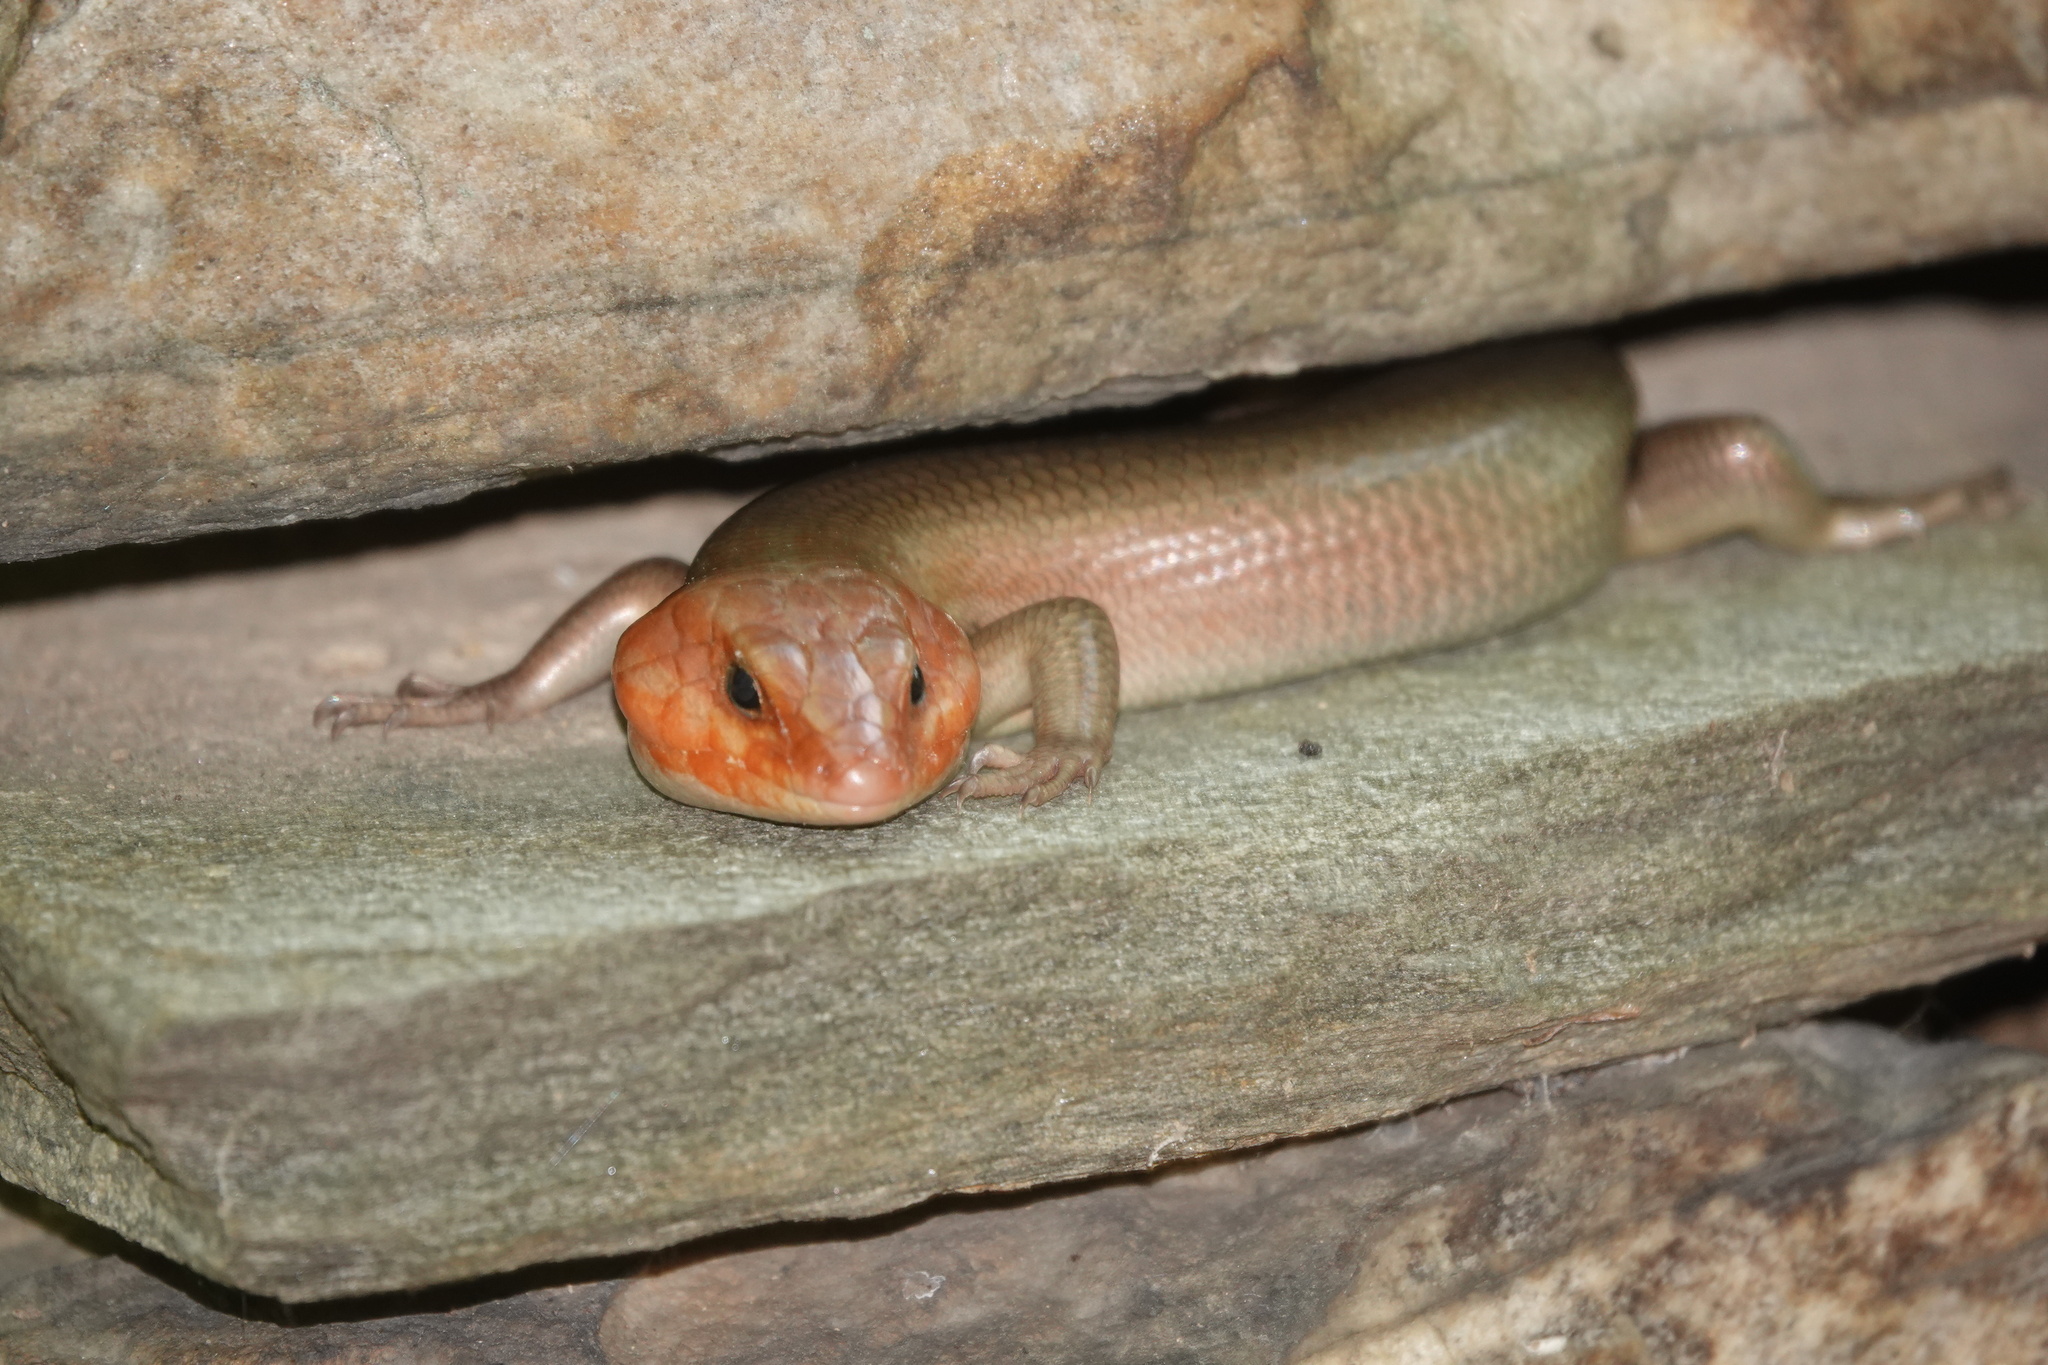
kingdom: Animalia
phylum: Chordata
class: Squamata
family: Scincidae
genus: Plestiodon
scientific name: Plestiodon laticeps
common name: Broadhead skink
